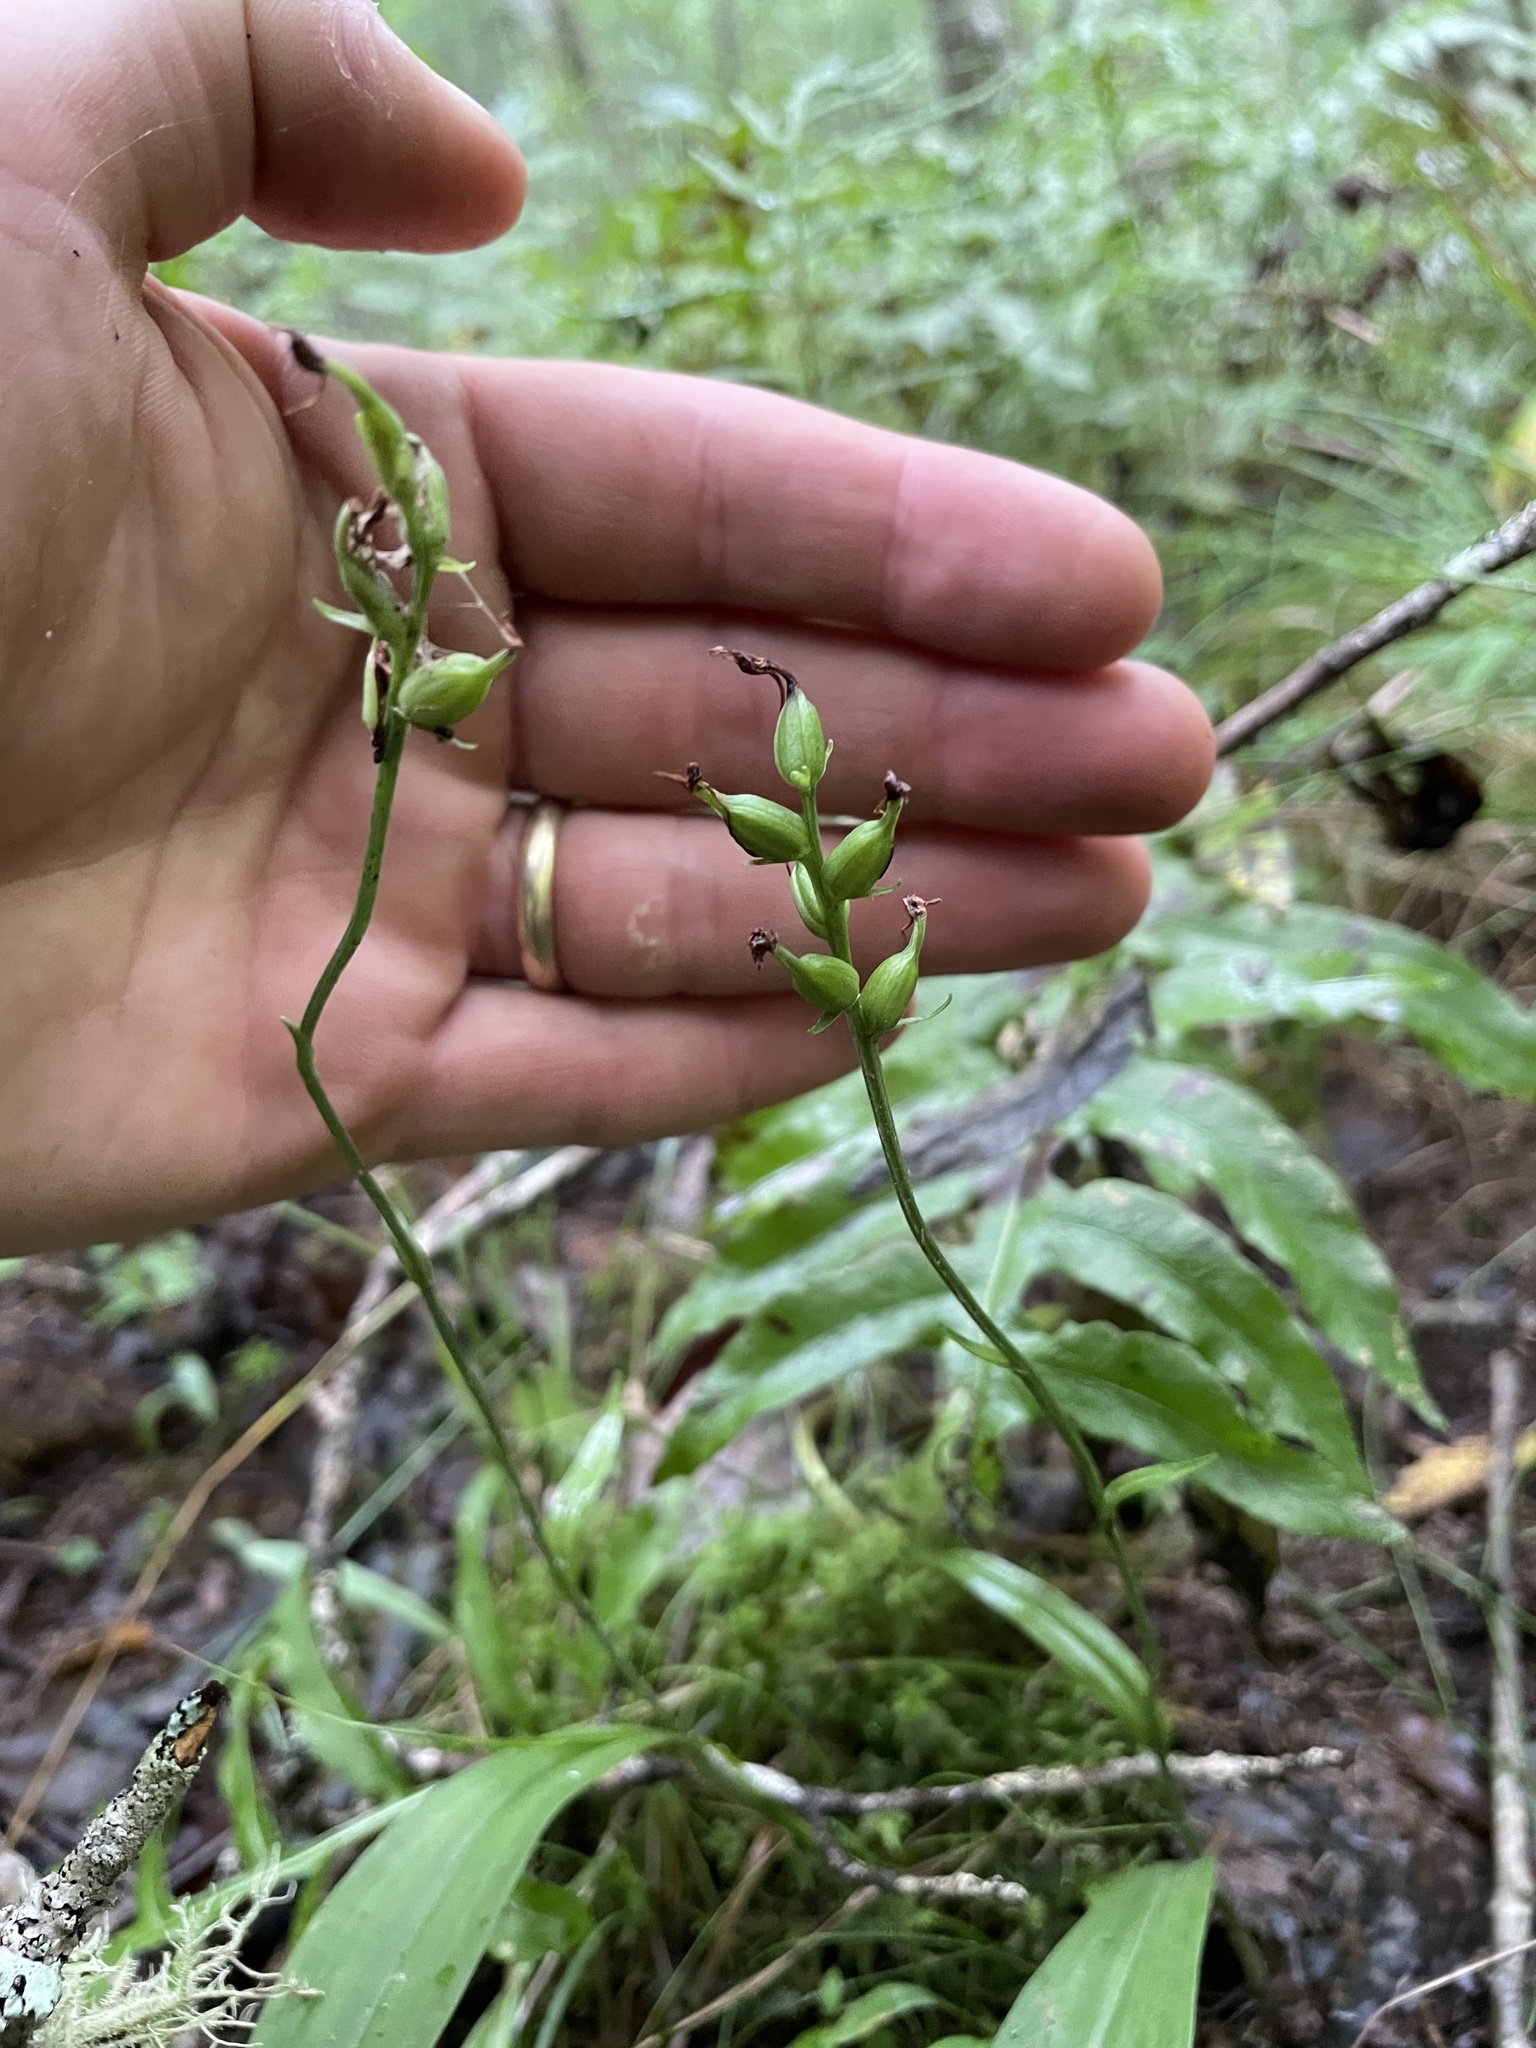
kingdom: Plantae
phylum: Tracheophyta
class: Liliopsida
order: Asparagales
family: Orchidaceae
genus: Platanthera
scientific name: Platanthera clavellata
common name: Club-spur orchid
